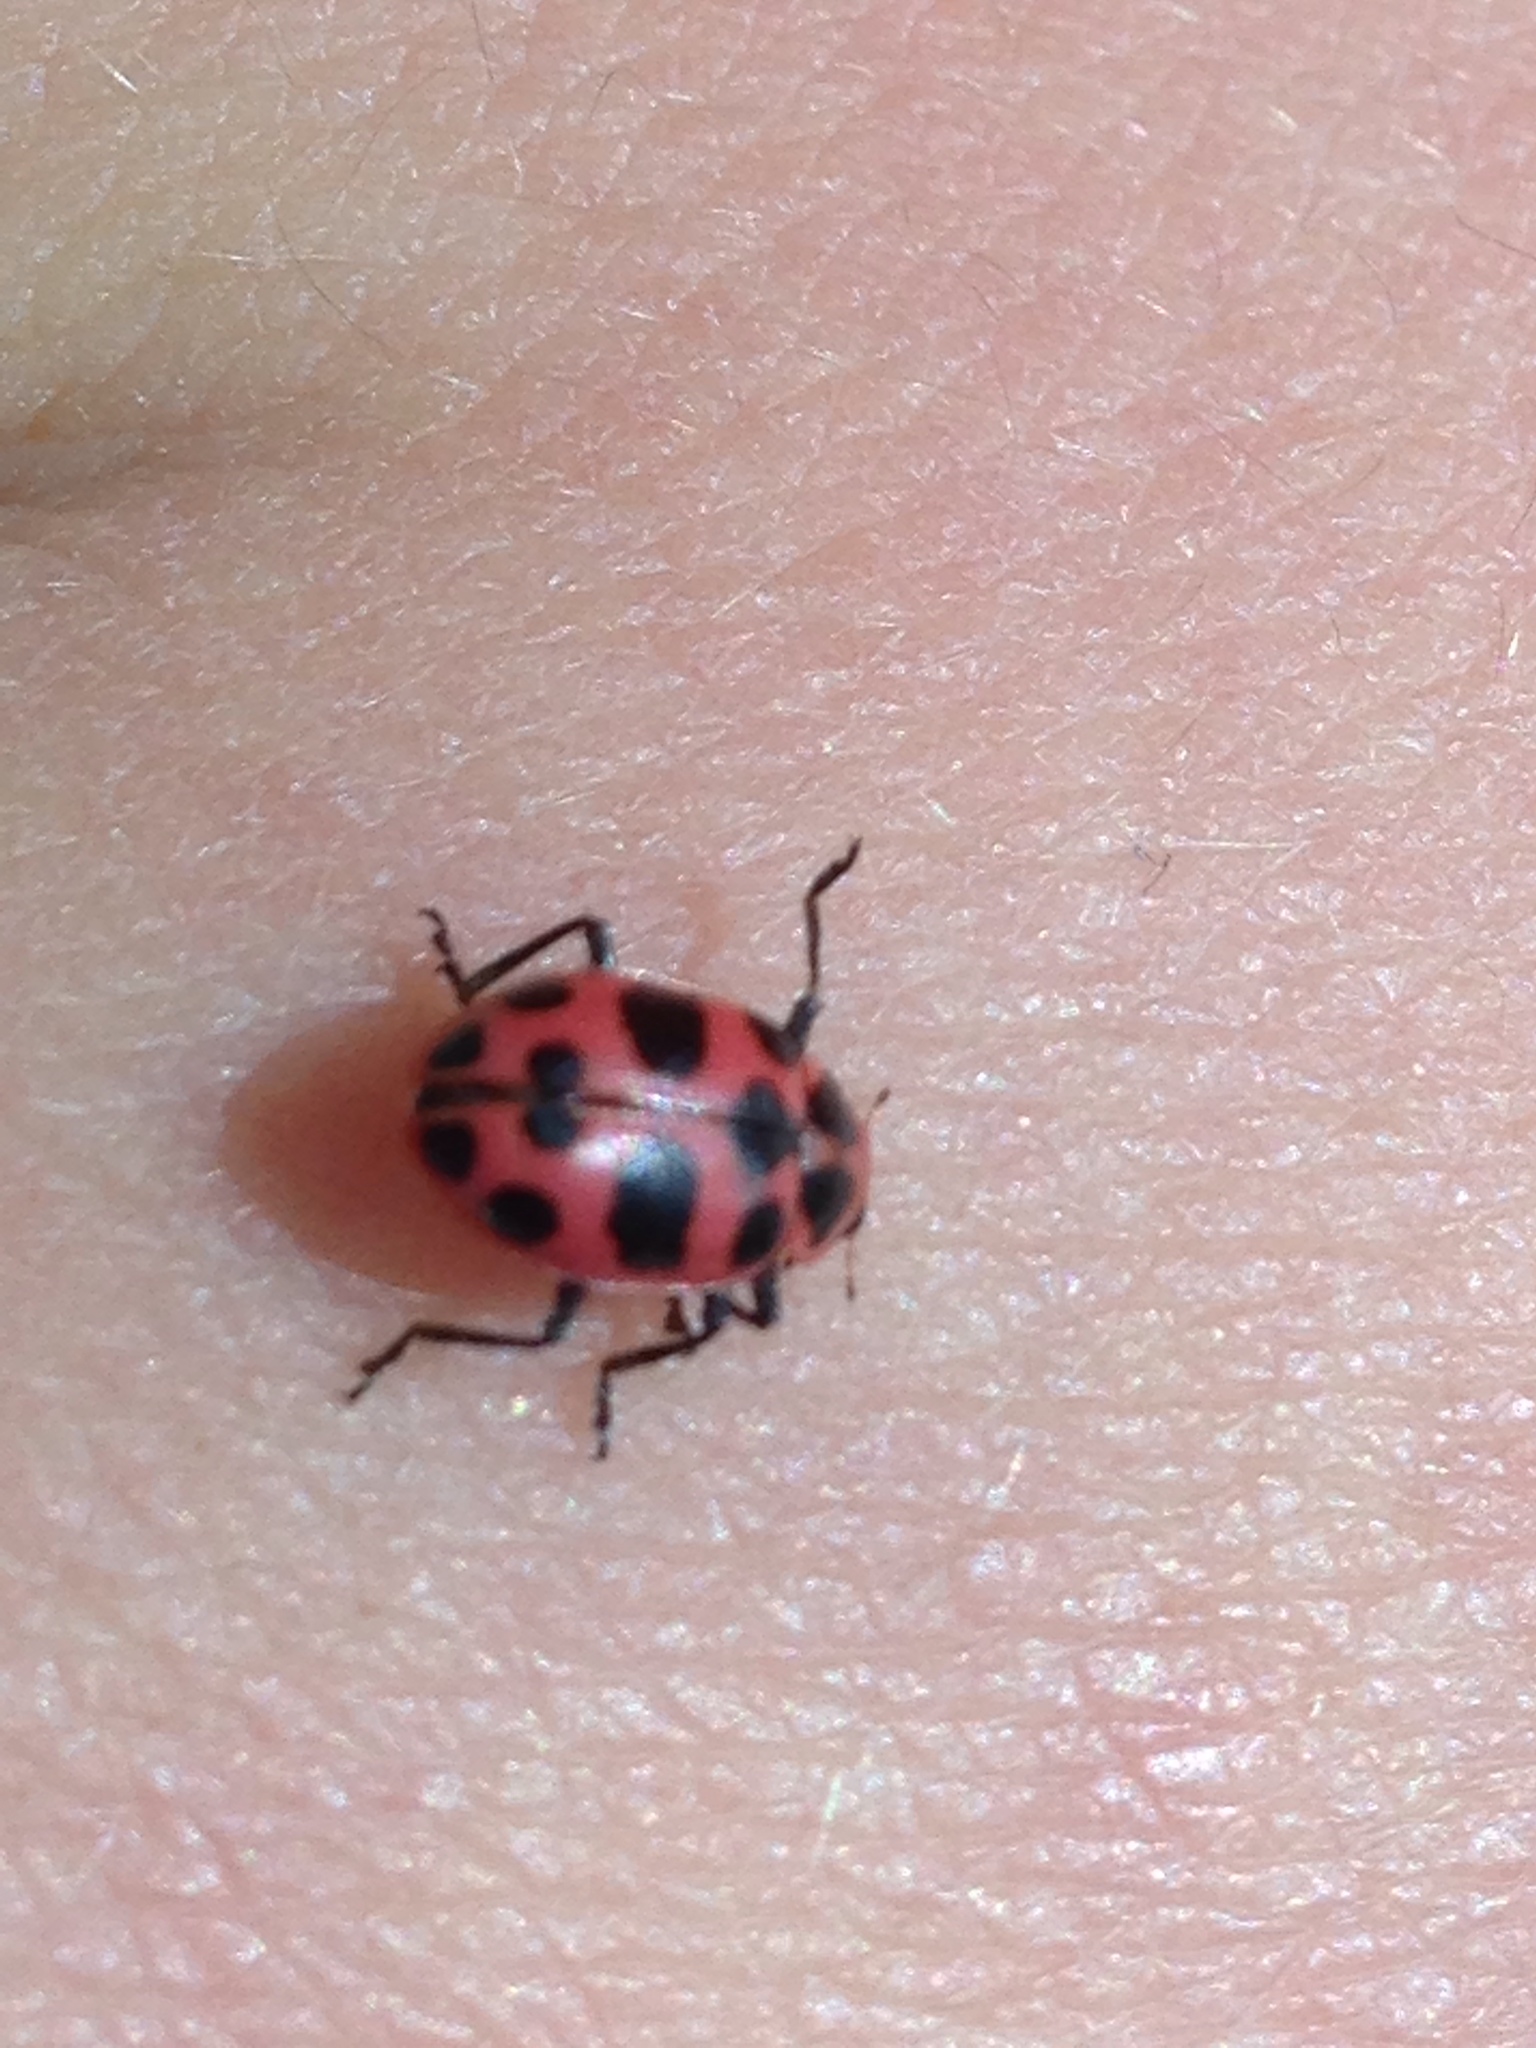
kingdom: Animalia
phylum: Arthropoda
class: Insecta
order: Coleoptera
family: Coccinellidae
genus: Coleomegilla
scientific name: Coleomegilla maculata
